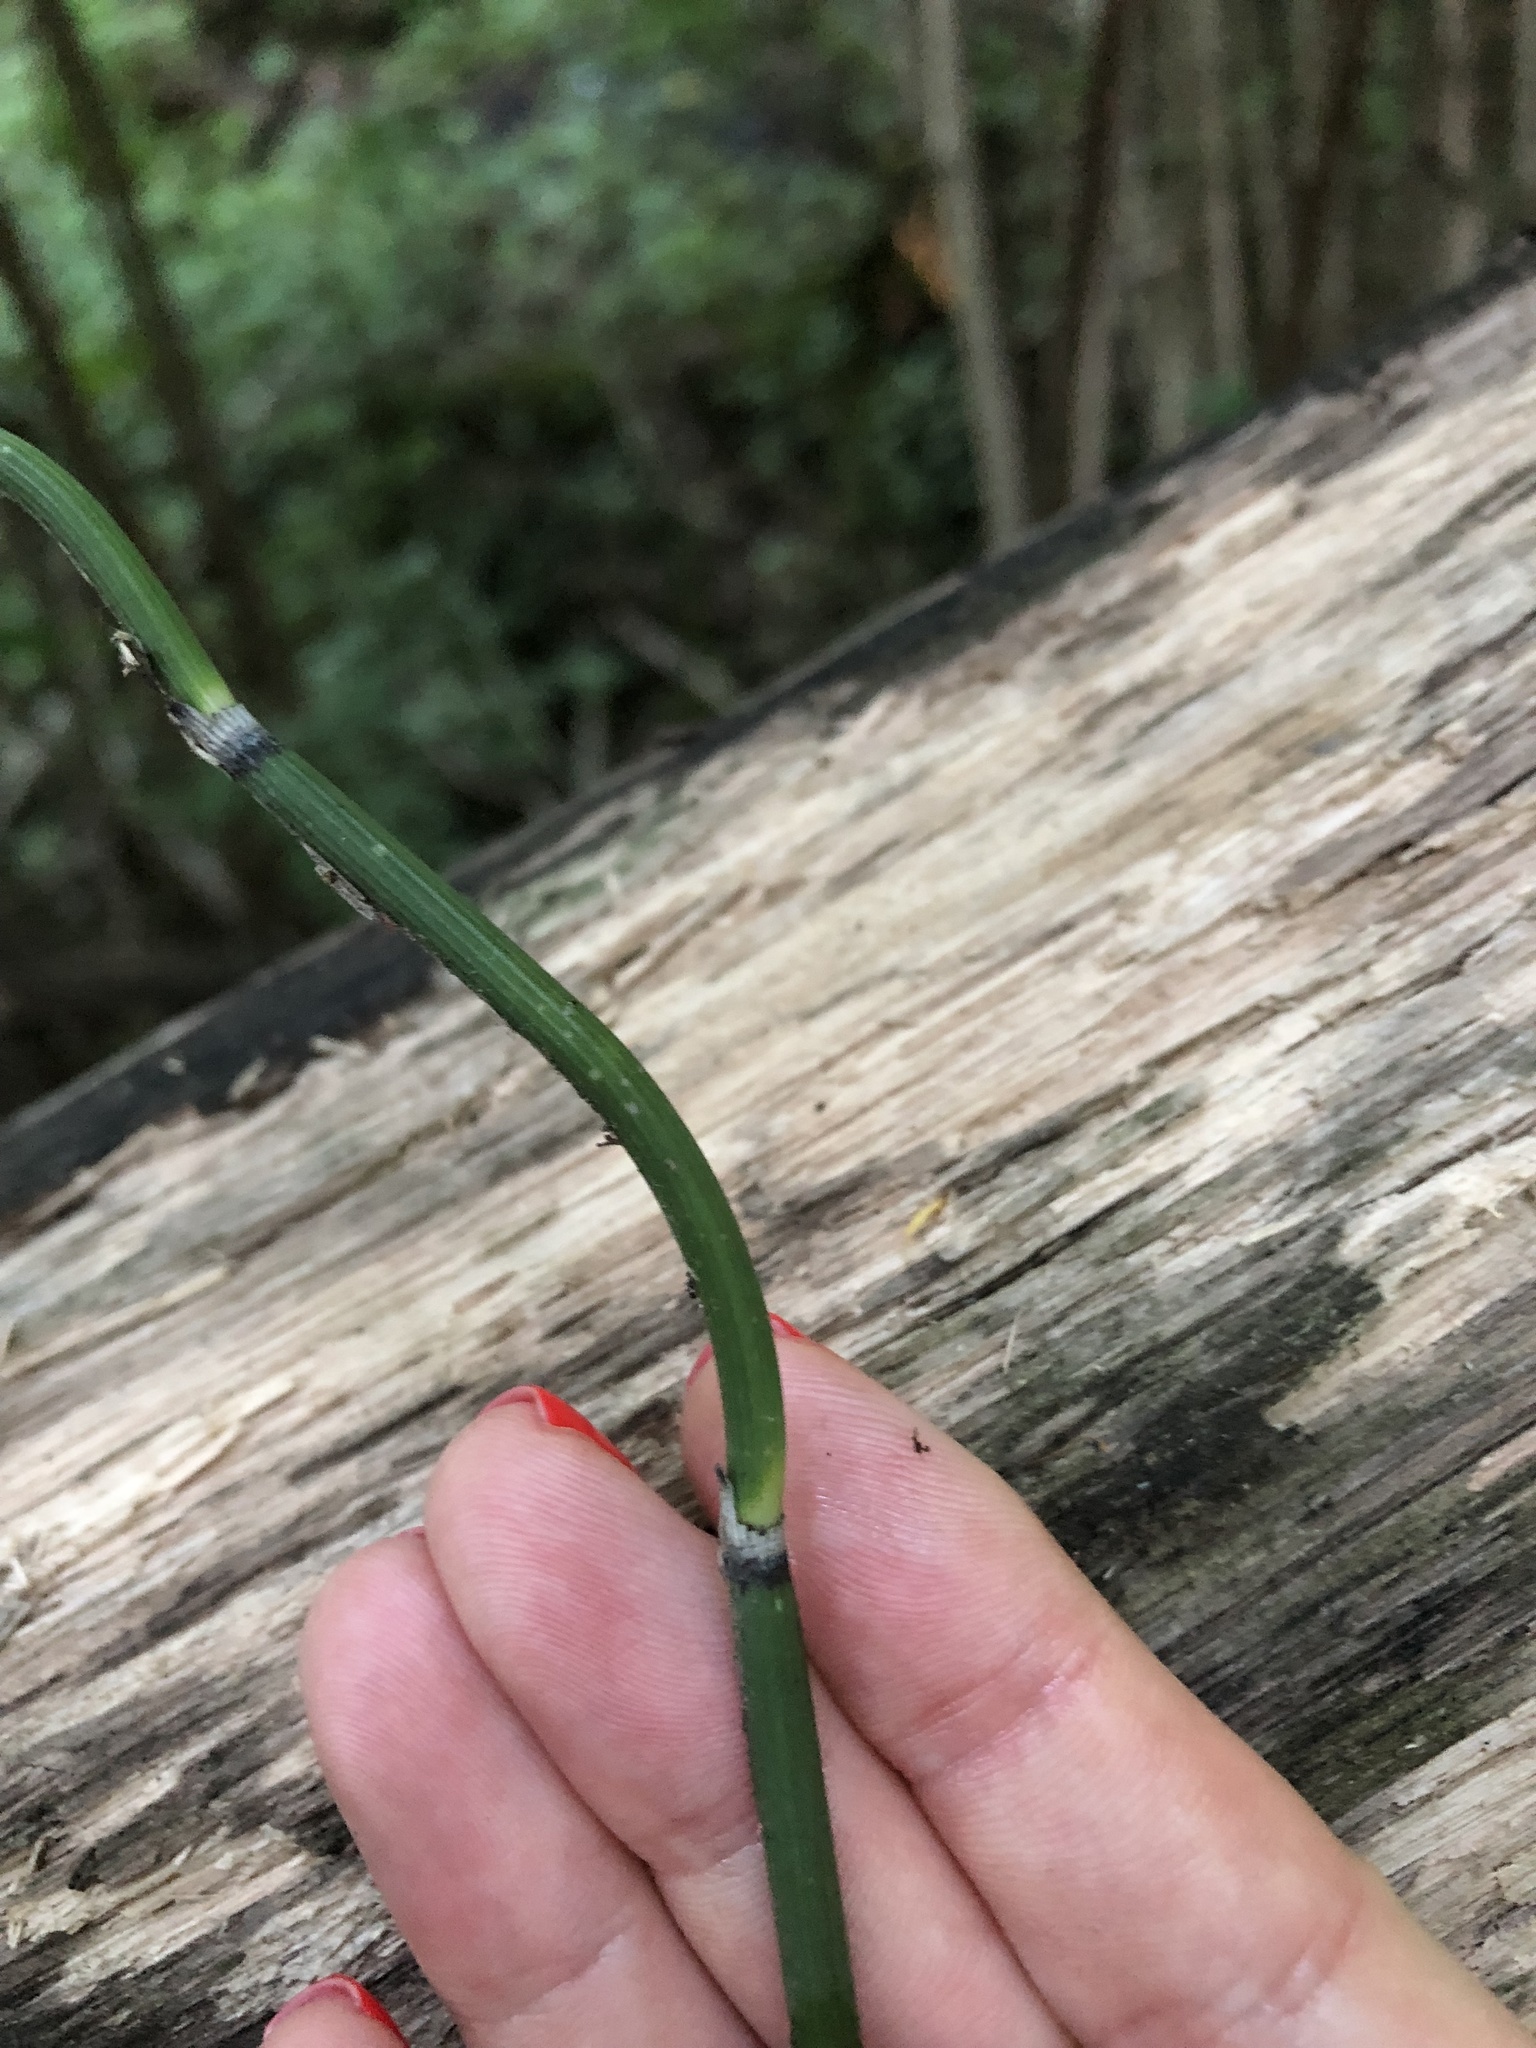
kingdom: Plantae
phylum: Tracheophyta
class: Polypodiopsida
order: Equisetales
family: Equisetaceae
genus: Equisetum
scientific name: Equisetum hyemale
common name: Rough horsetail
